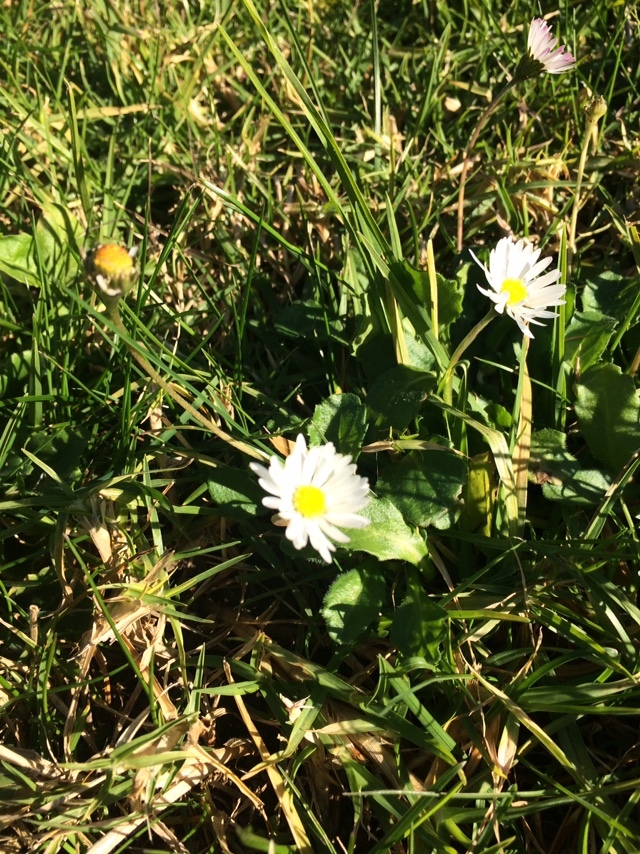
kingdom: Plantae
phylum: Tracheophyta
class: Magnoliopsida
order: Asterales
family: Asteraceae
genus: Bellis
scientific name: Bellis perennis
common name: Lawndaisy
